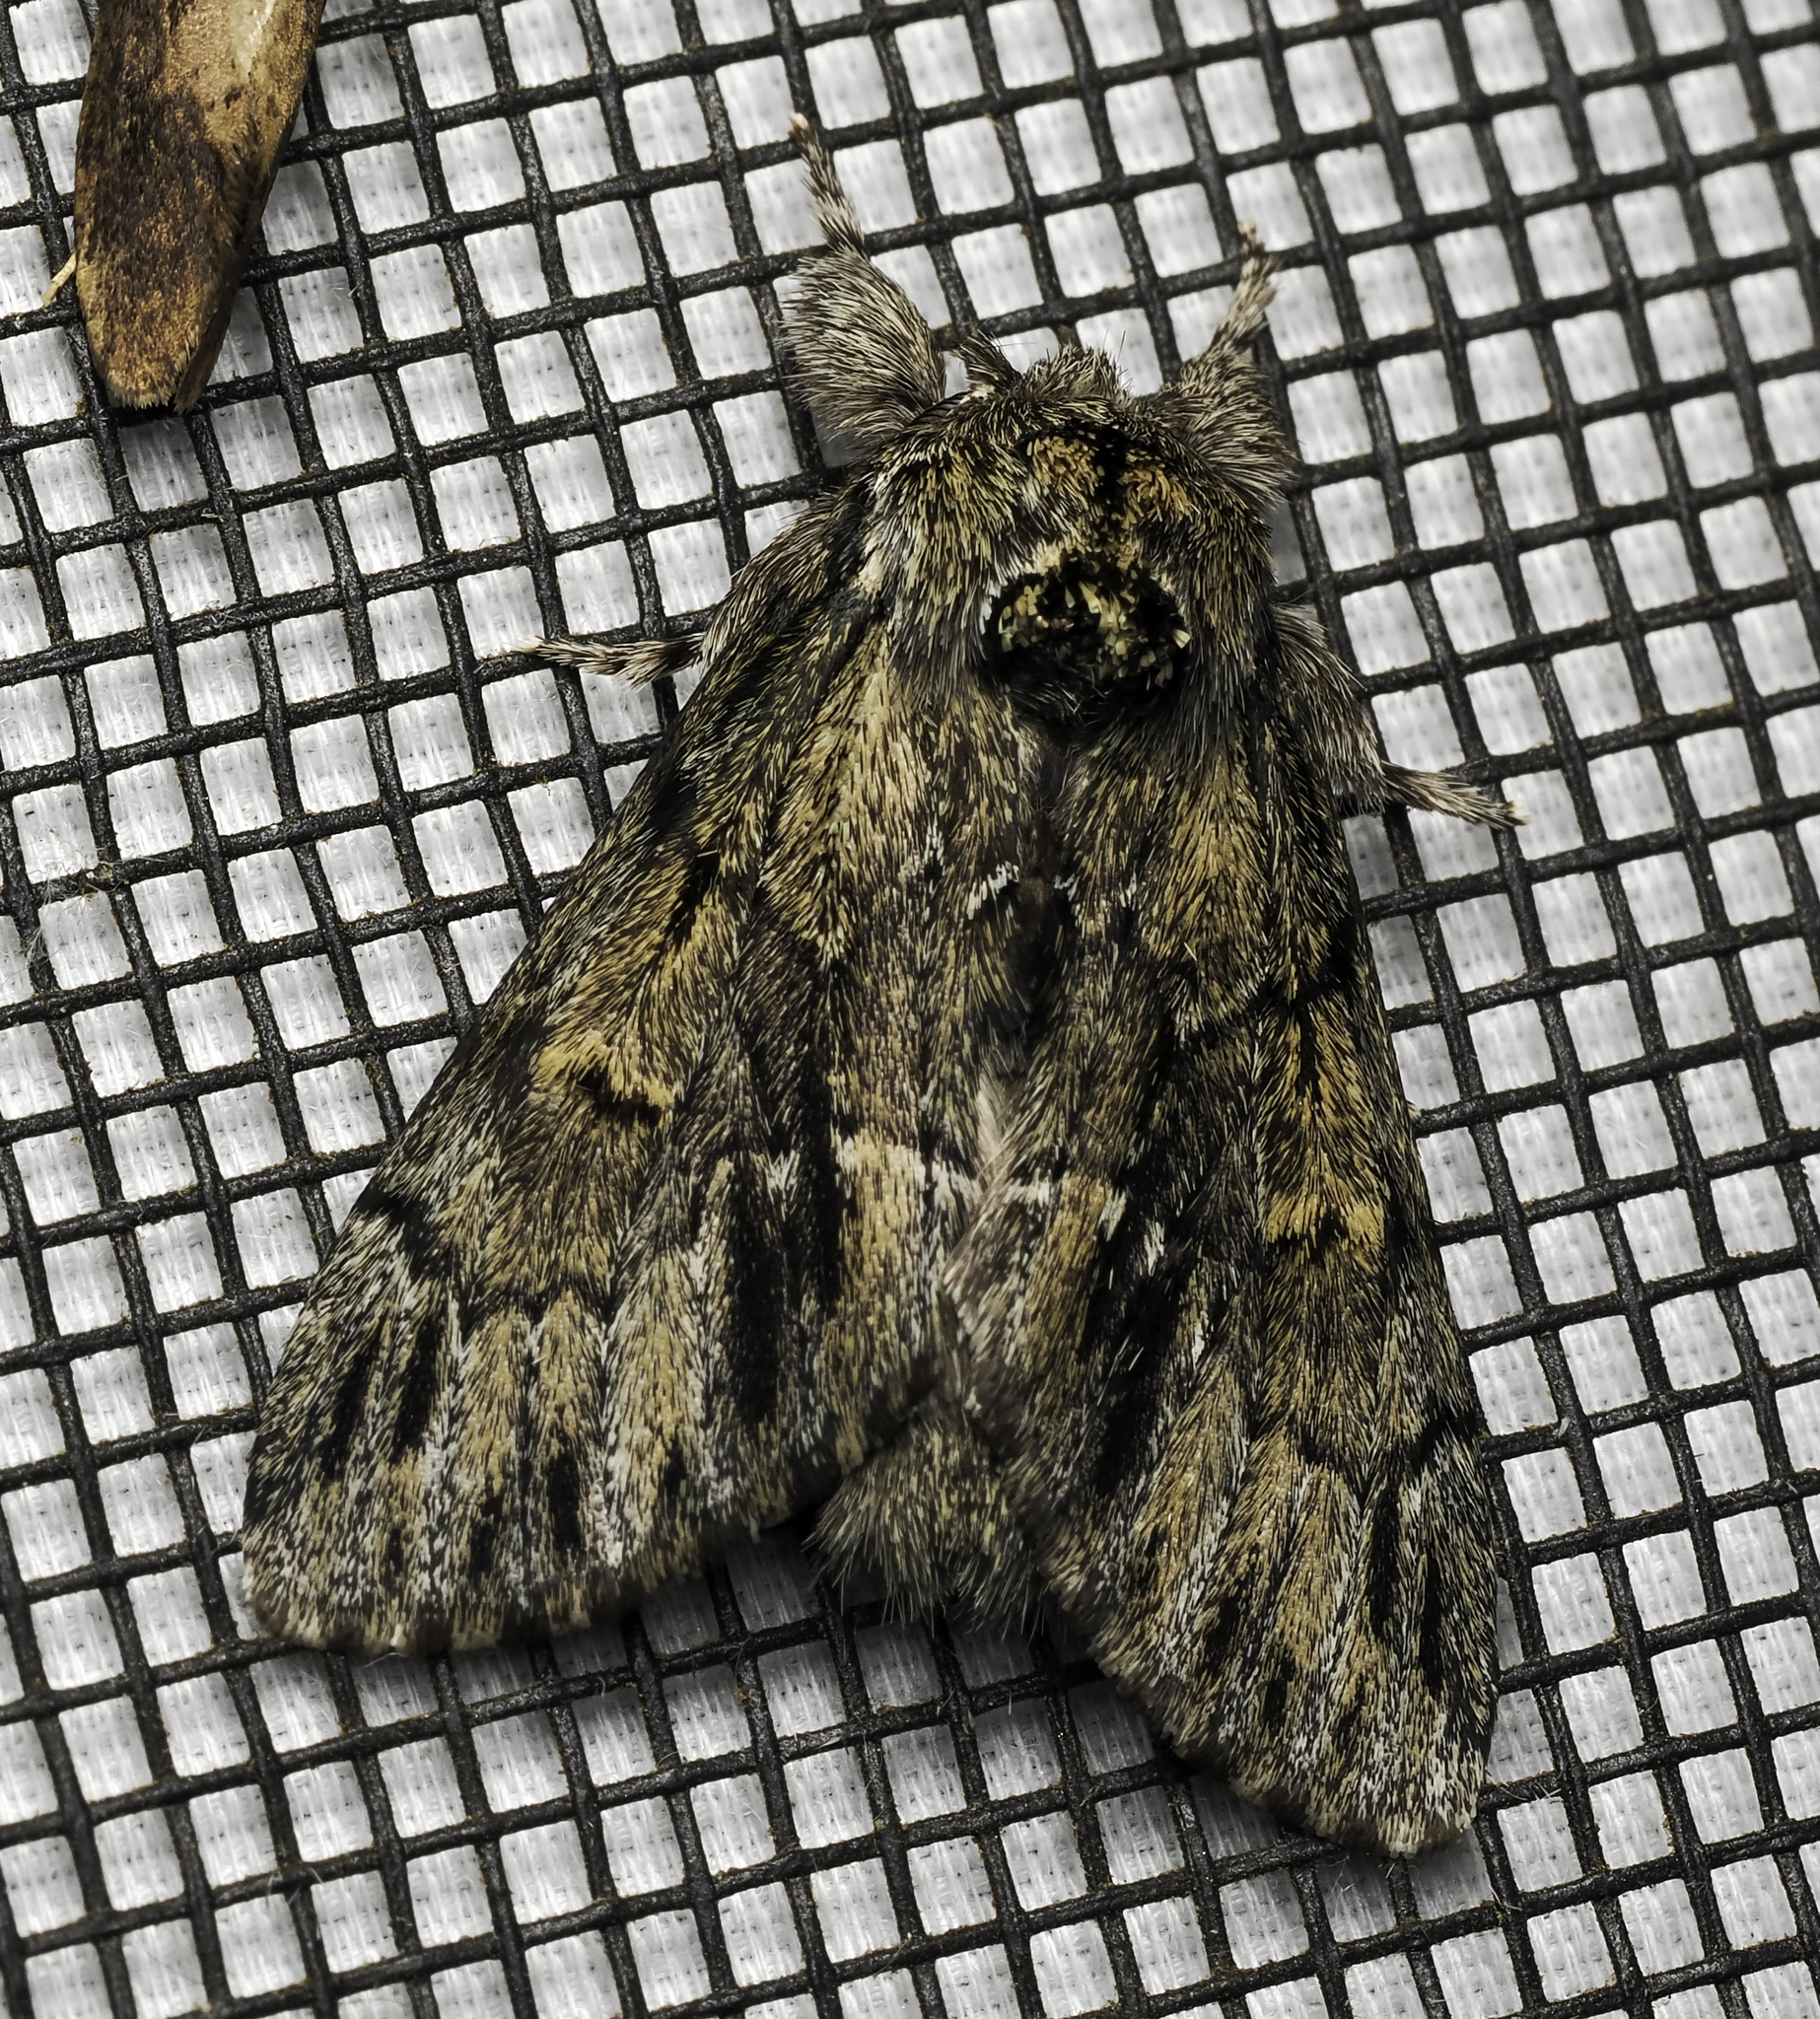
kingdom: Animalia
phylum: Arthropoda
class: Insecta
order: Lepidoptera
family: Notodontidae
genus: Paraeschra
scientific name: Paraeschra georgica
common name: Georgian prominent
